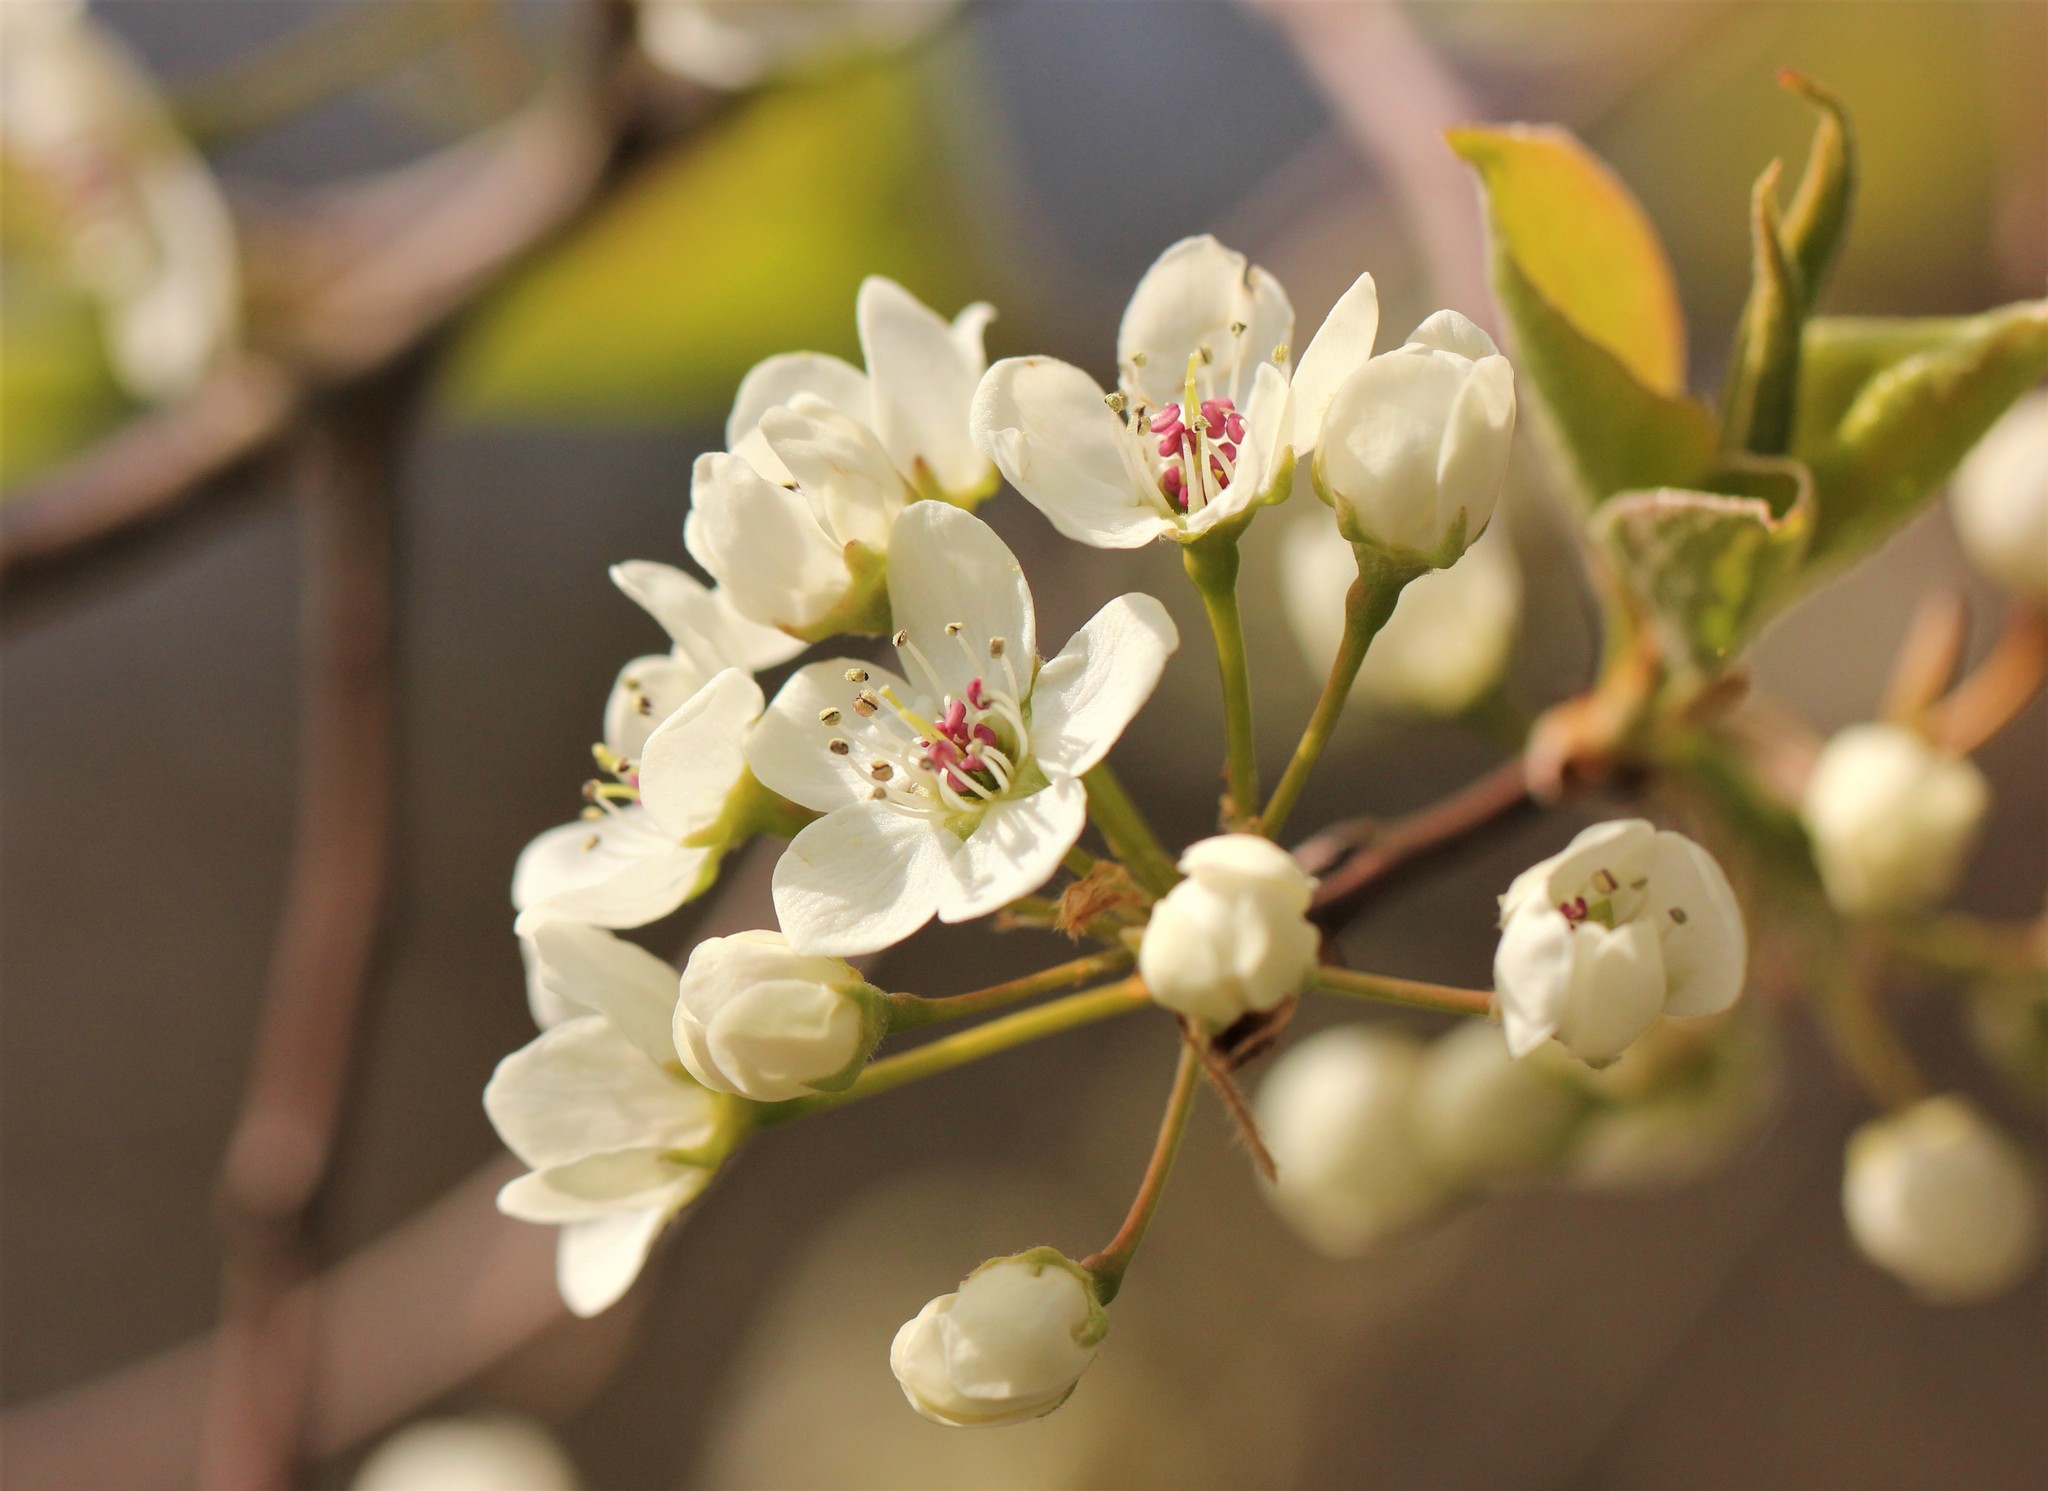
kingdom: Plantae
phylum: Tracheophyta
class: Magnoliopsida
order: Rosales
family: Rosaceae
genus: Pyrus
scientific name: Pyrus calleryana
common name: Callery pear
